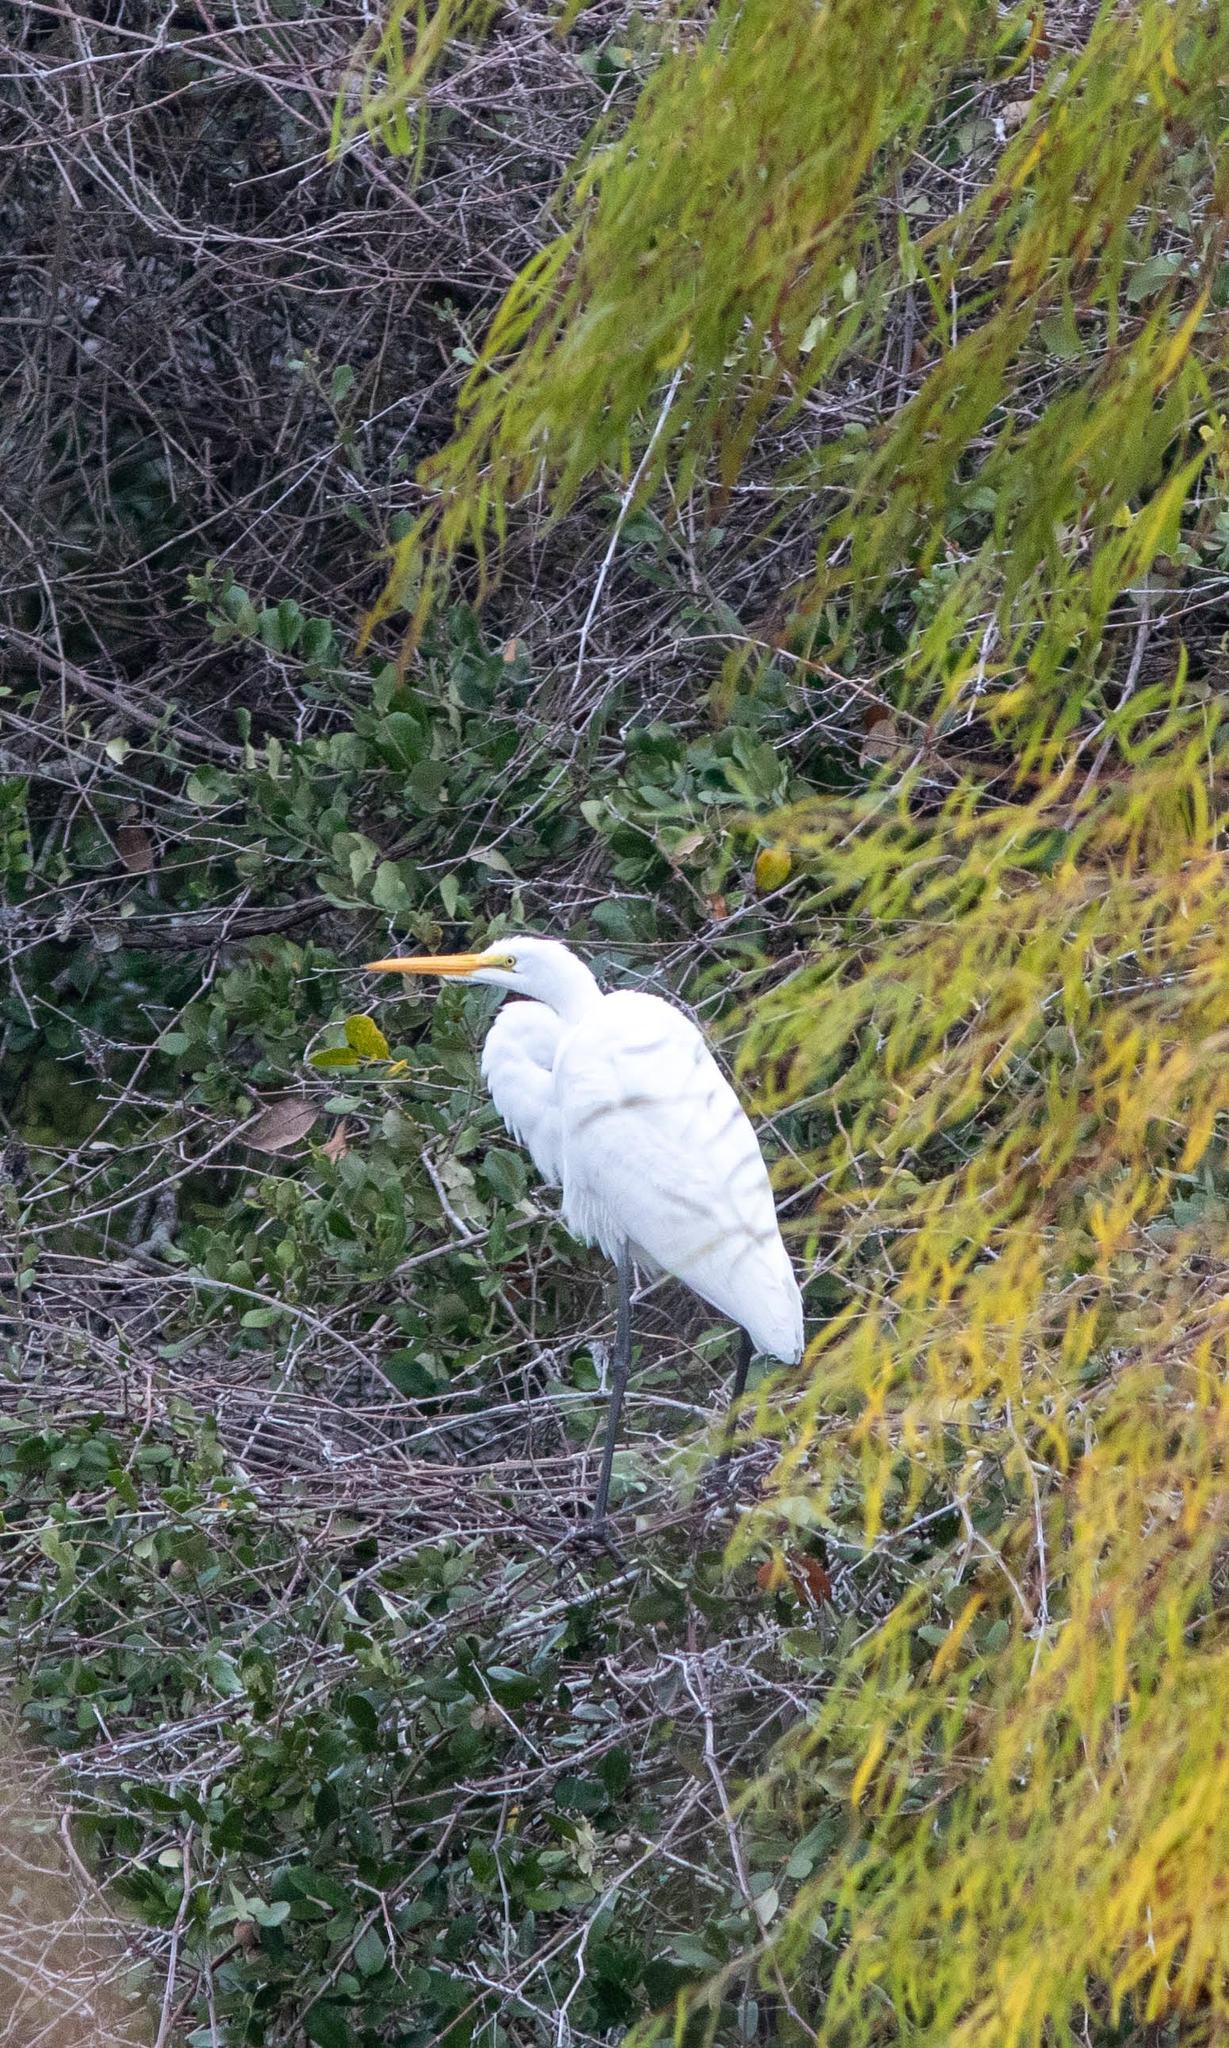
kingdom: Animalia
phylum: Chordata
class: Aves
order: Pelecaniformes
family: Ardeidae
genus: Ardea
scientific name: Ardea alba
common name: Great egret
